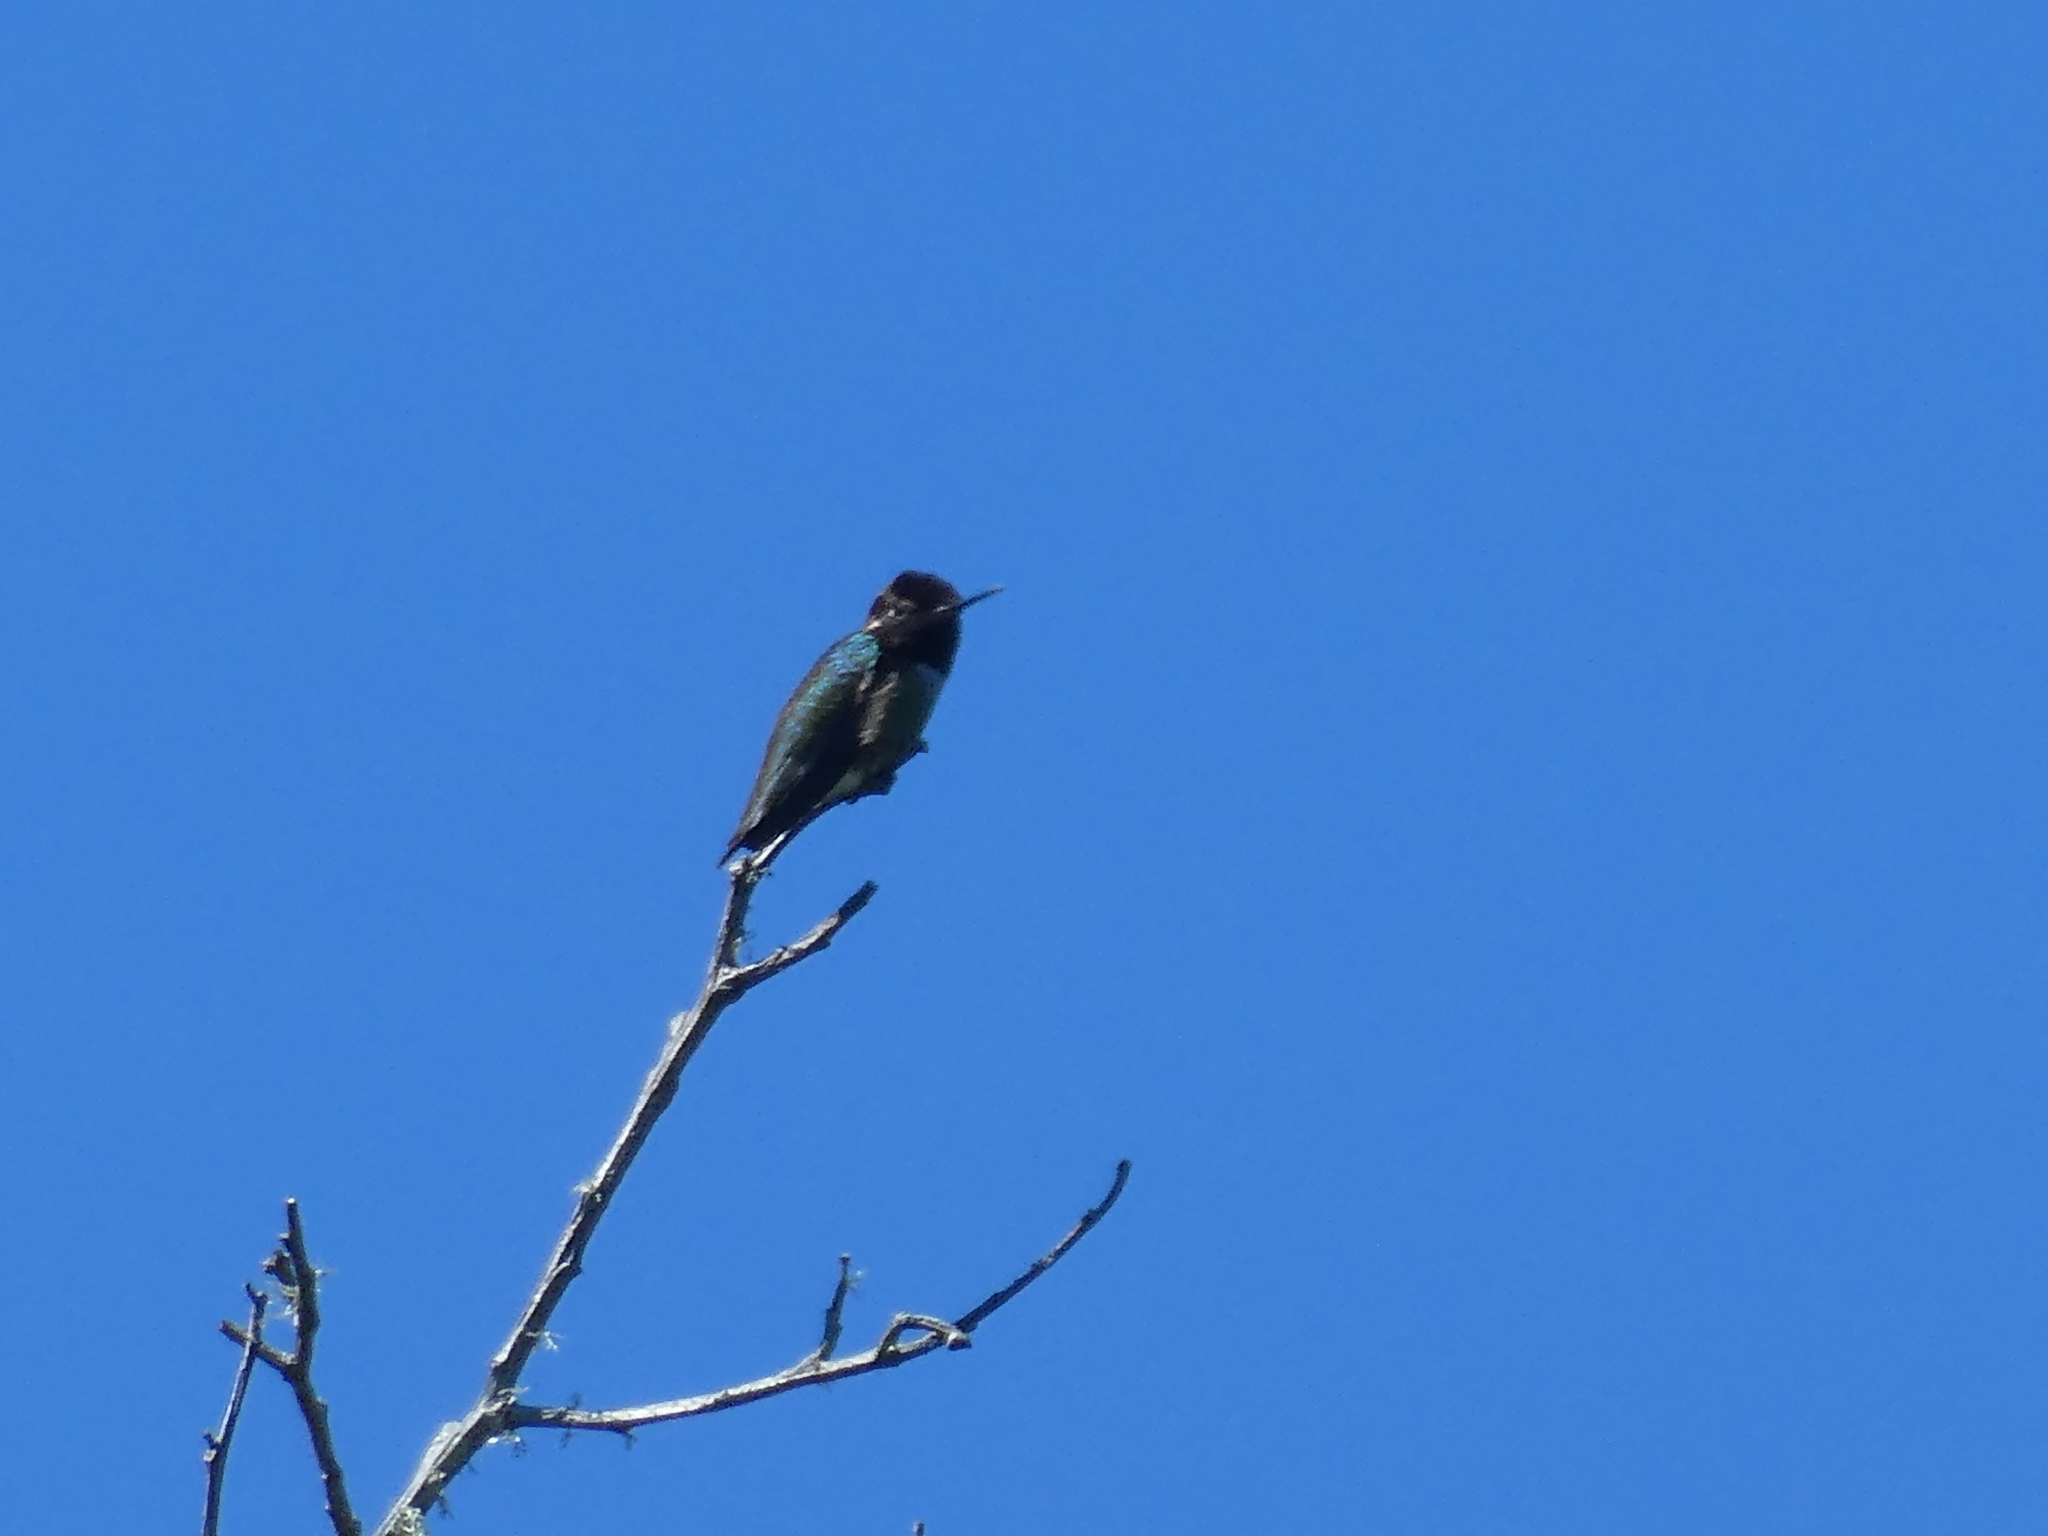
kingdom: Animalia
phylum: Chordata
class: Aves
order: Apodiformes
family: Trochilidae
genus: Calypte
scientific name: Calypte anna
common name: Anna's hummingbird
